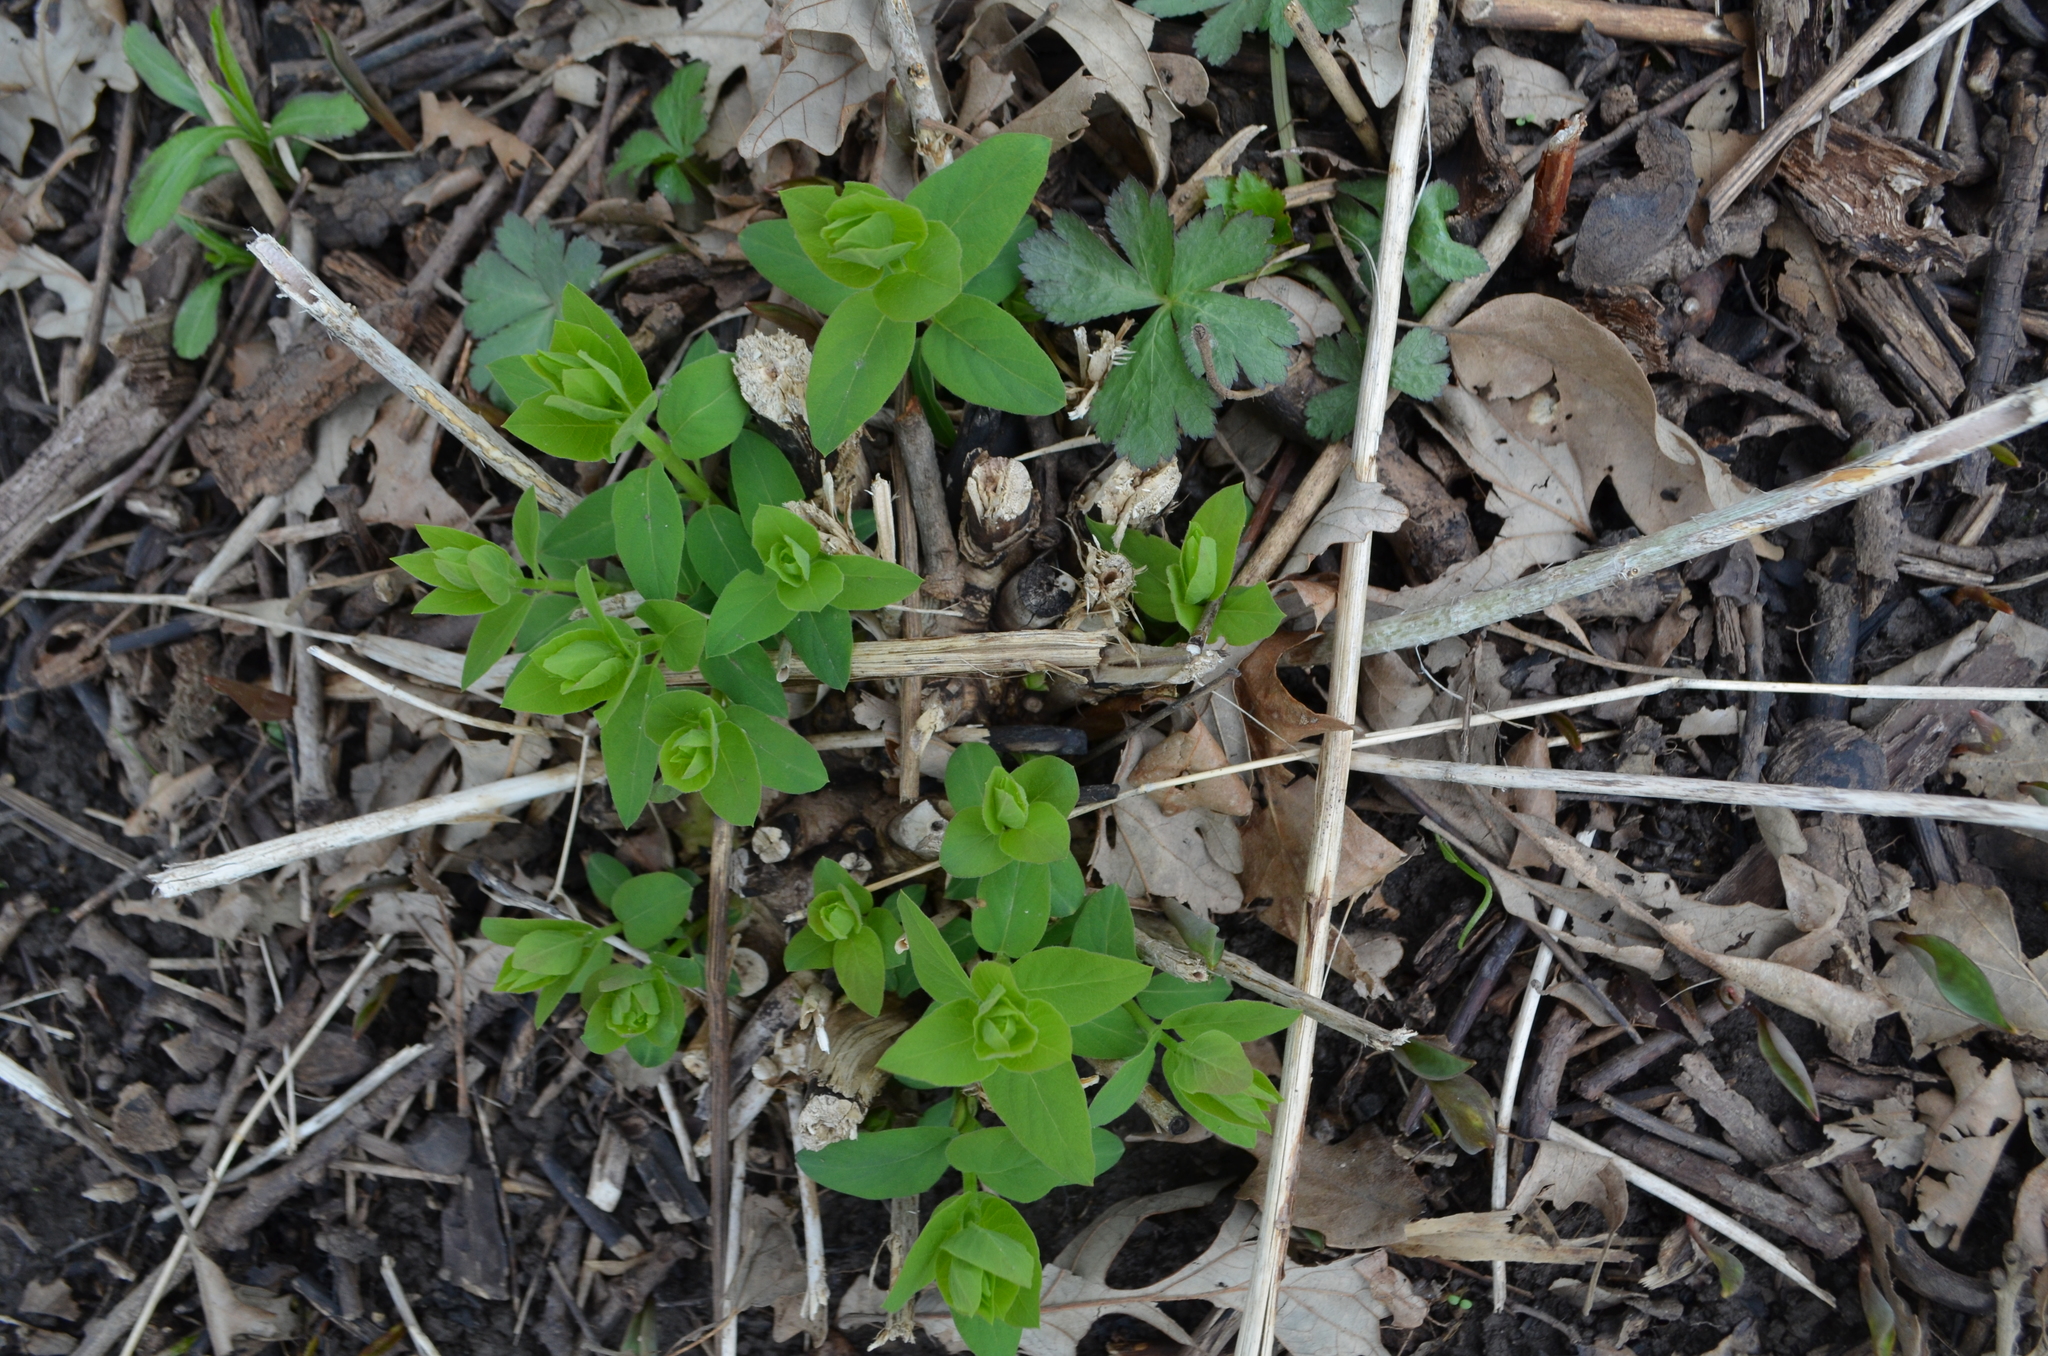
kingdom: Plantae
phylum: Tracheophyta
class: Magnoliopsida
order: Dipsacales
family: Caprifoliaceae
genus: Lonicera
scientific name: Lonicera maackii
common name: Amur honeysuckle
